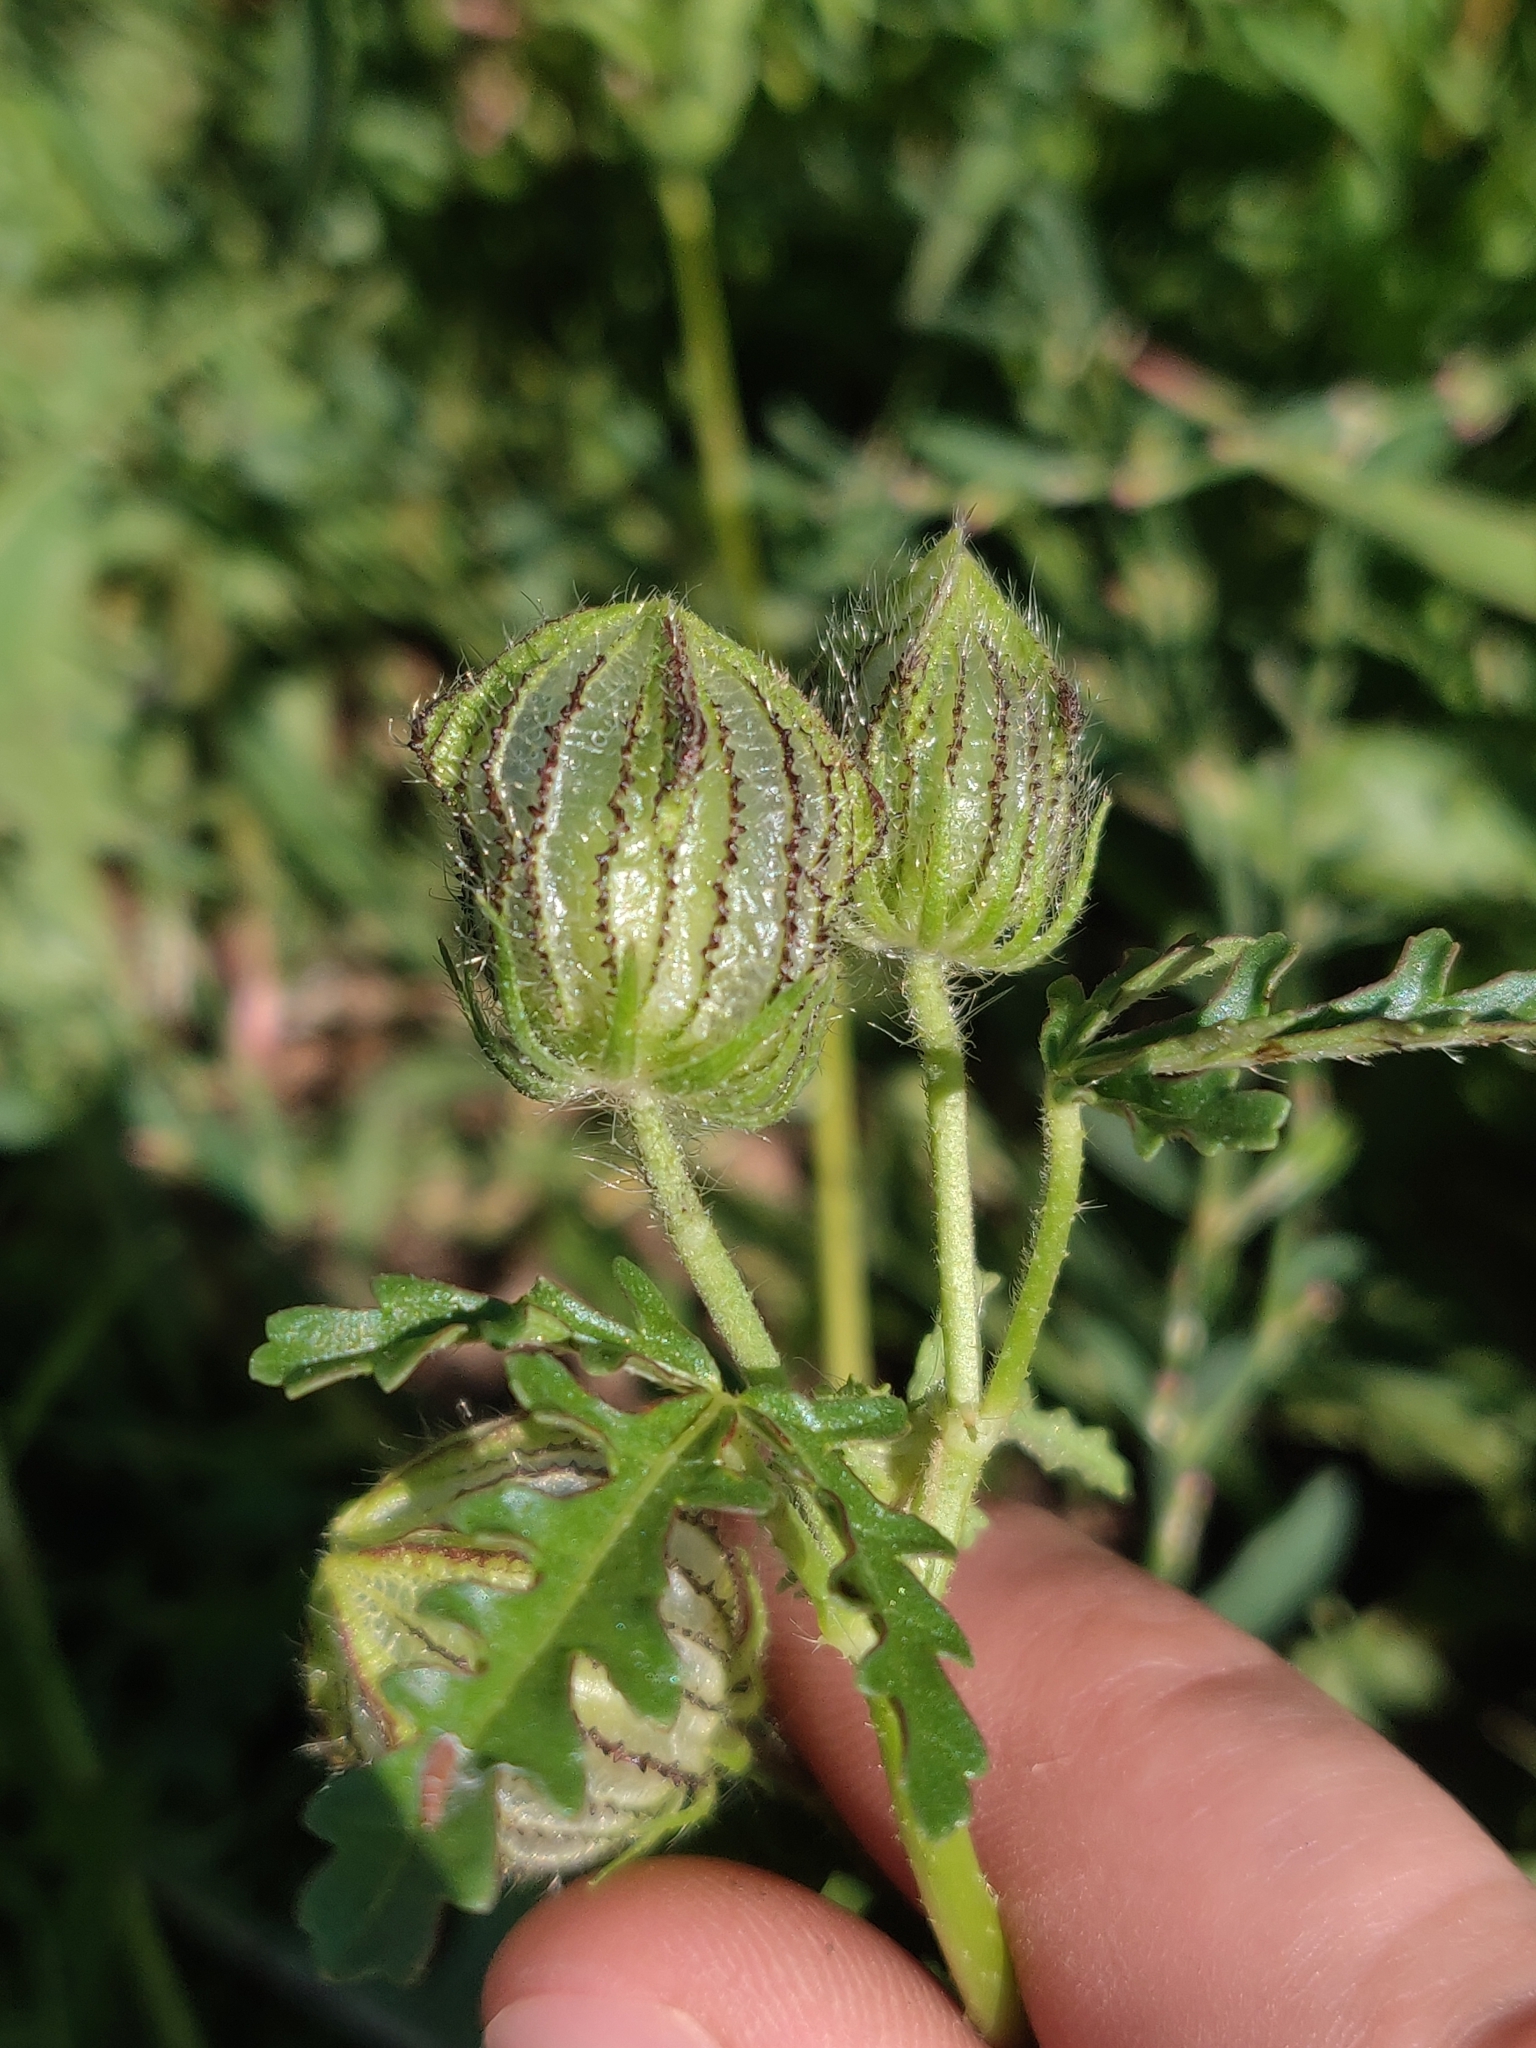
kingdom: Plantae
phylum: Tracheophyta
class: Magnoliopsida
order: Malvales
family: Malvaceae
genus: Hibiscus
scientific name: Hibiscus trionum
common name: Bladder ketmia
